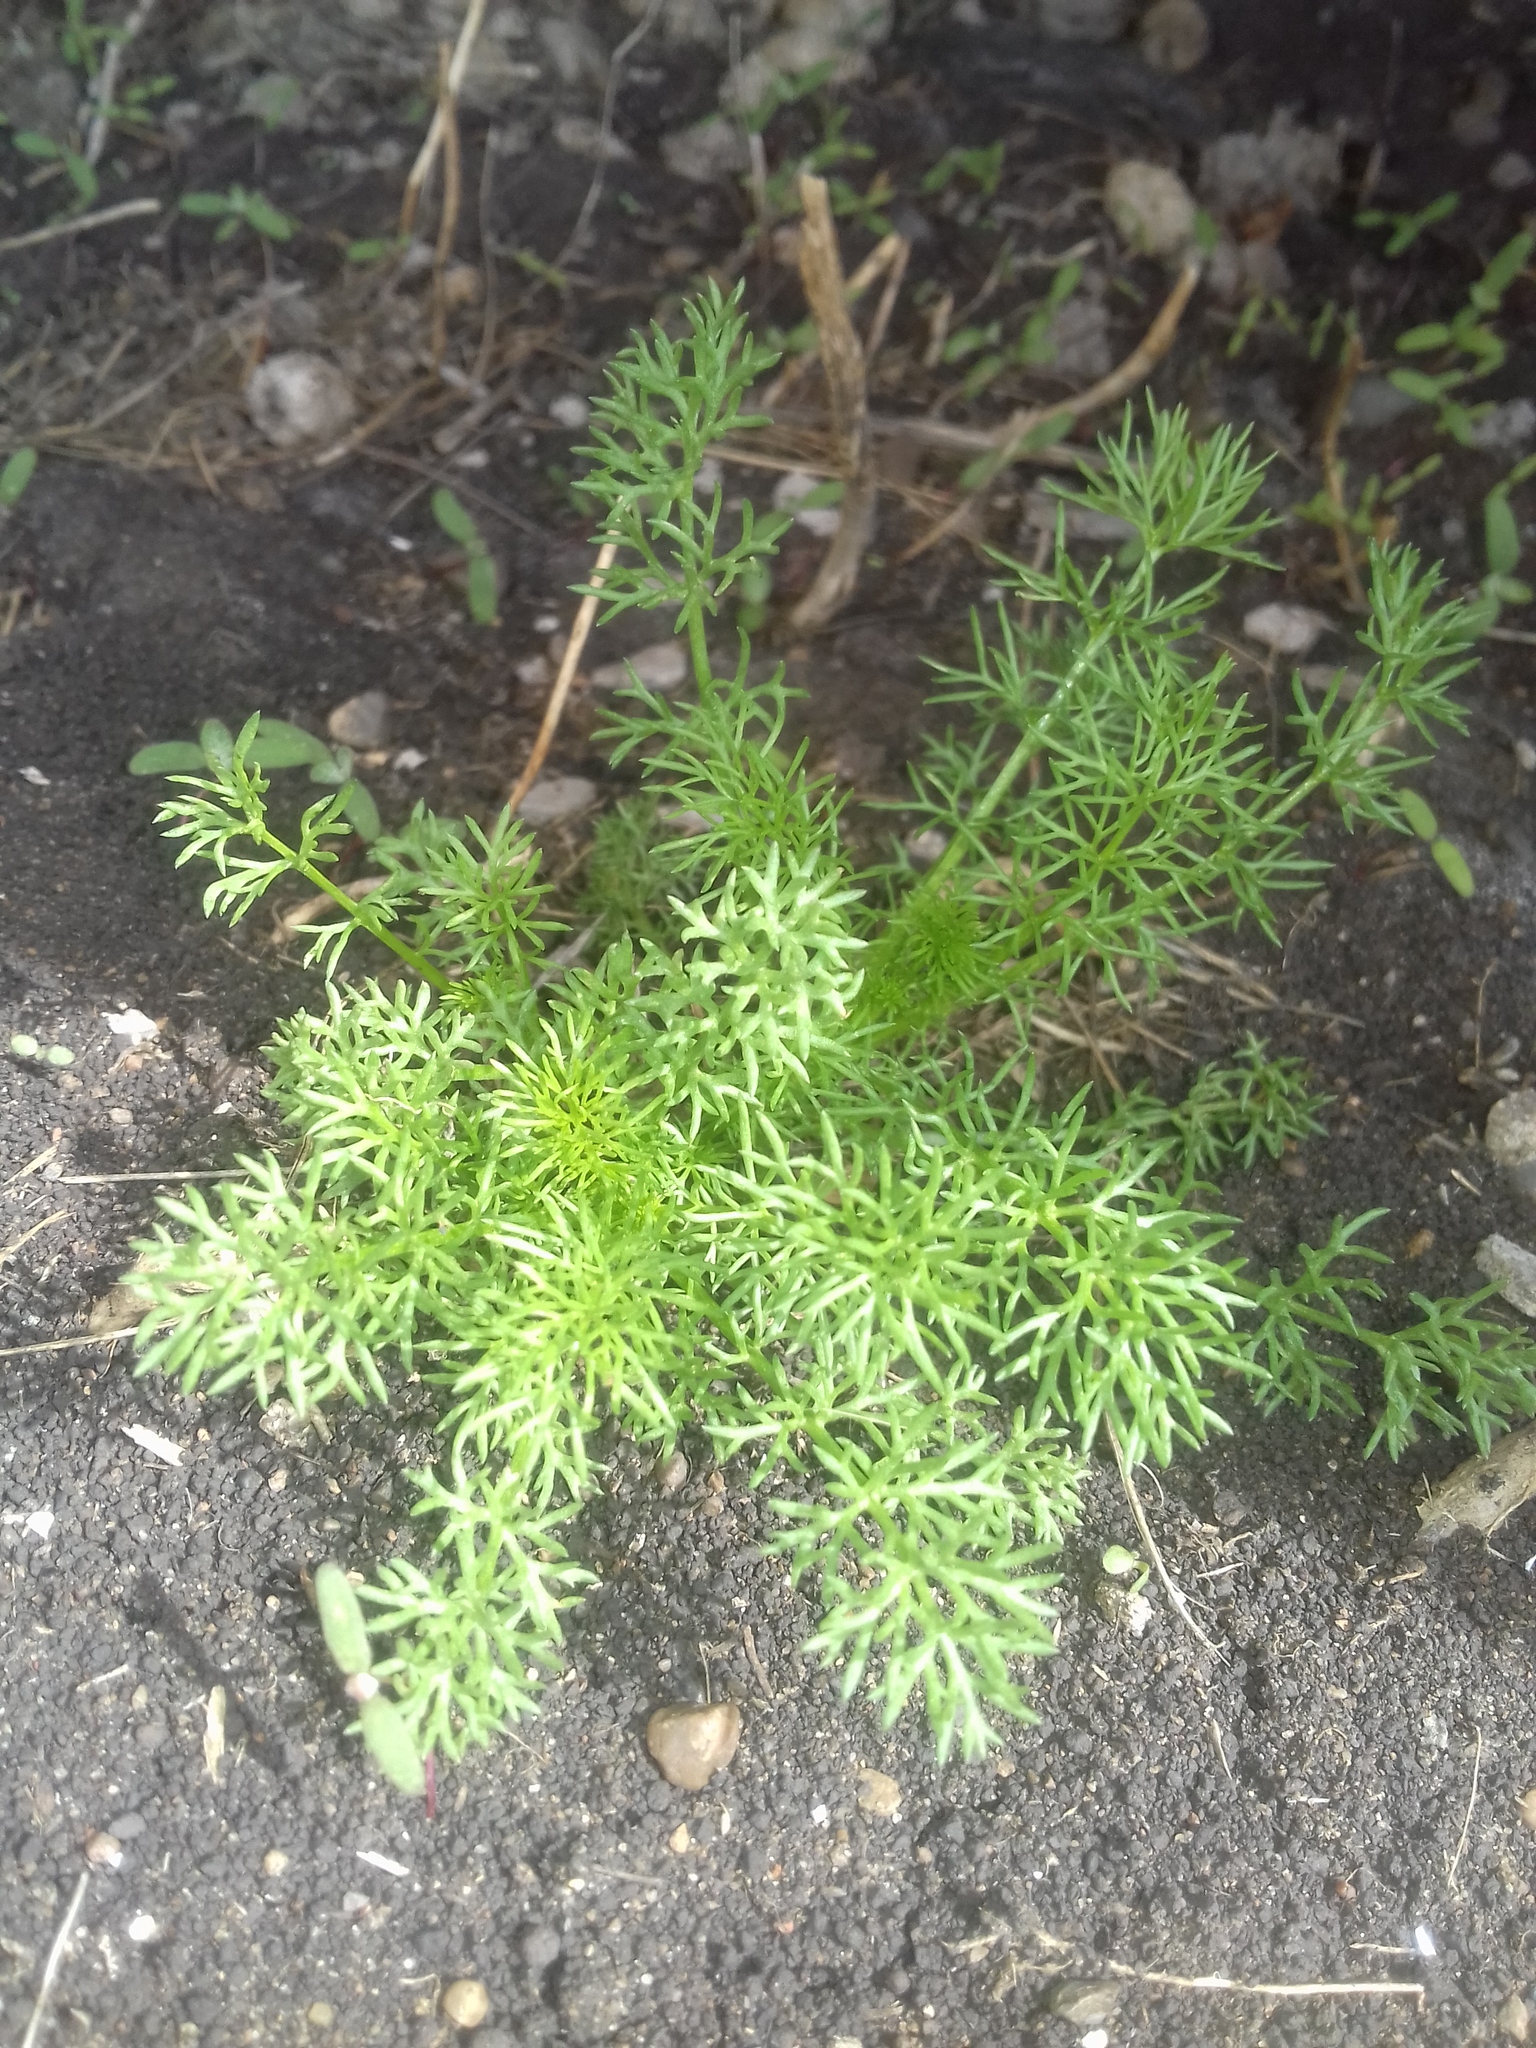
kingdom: Plantae
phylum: Tracheophyta
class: Magnoliopsida
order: Asterales
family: Asteraceae
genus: Tripleurospermum
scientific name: Tripleurospermum inodorum
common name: Scentless mayweed
